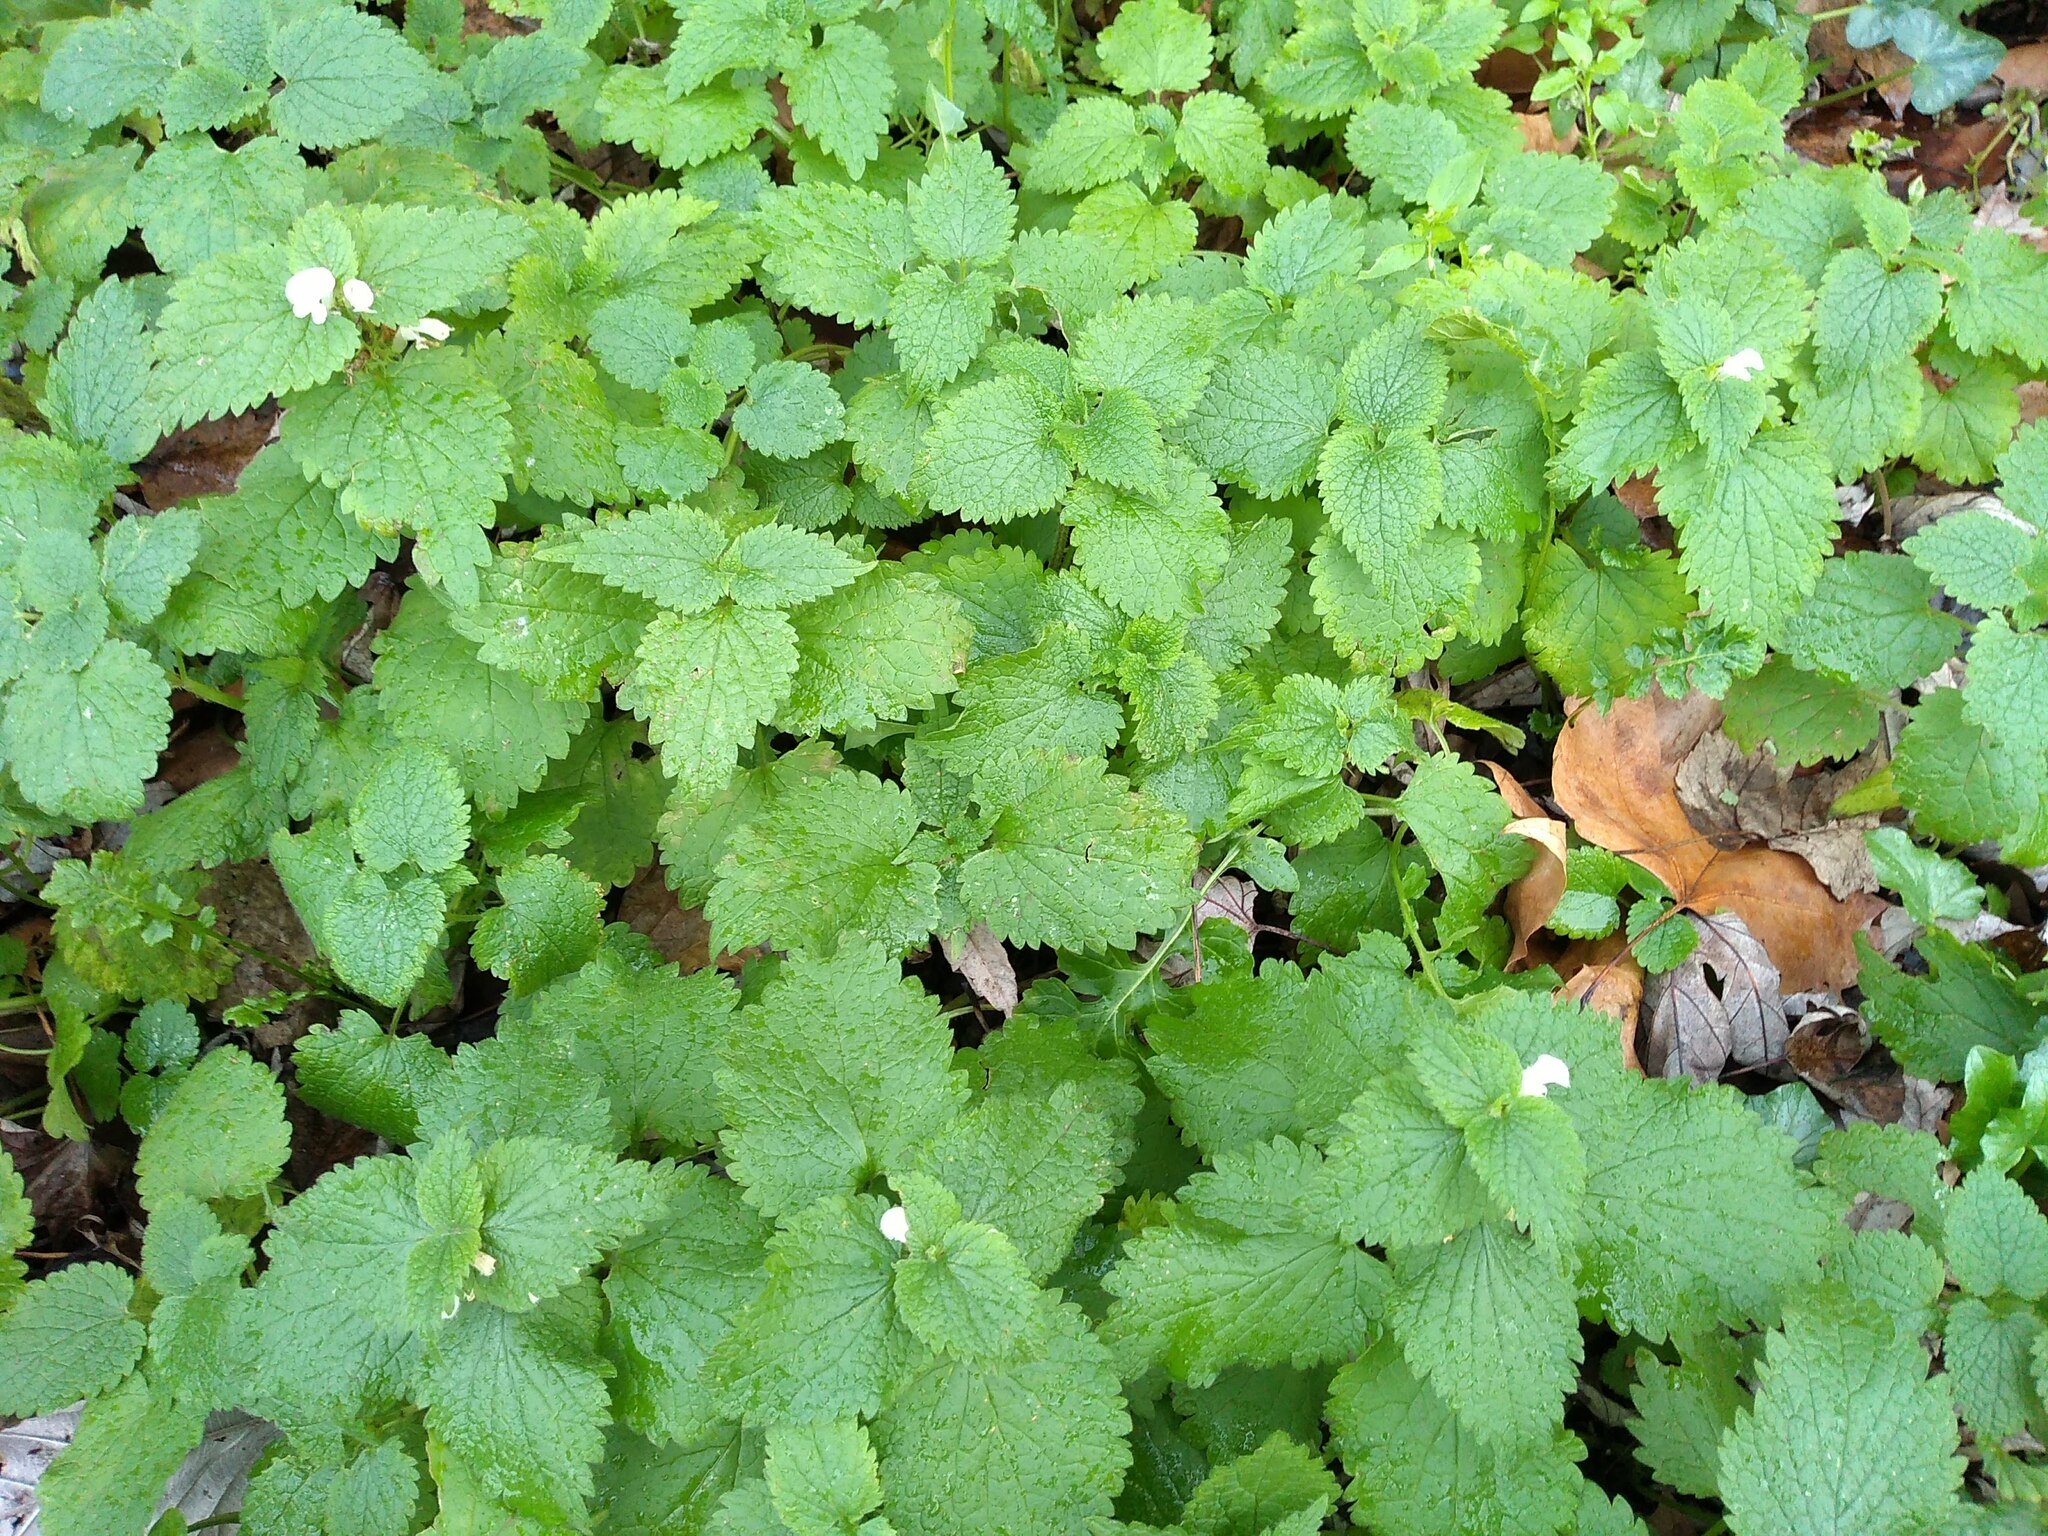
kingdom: Plantae
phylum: Tracheophyta
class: Magnoliopsida
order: Lamiales
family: Lamiaceae
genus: Lamium
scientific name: Lamium album
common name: White dead-nettle
